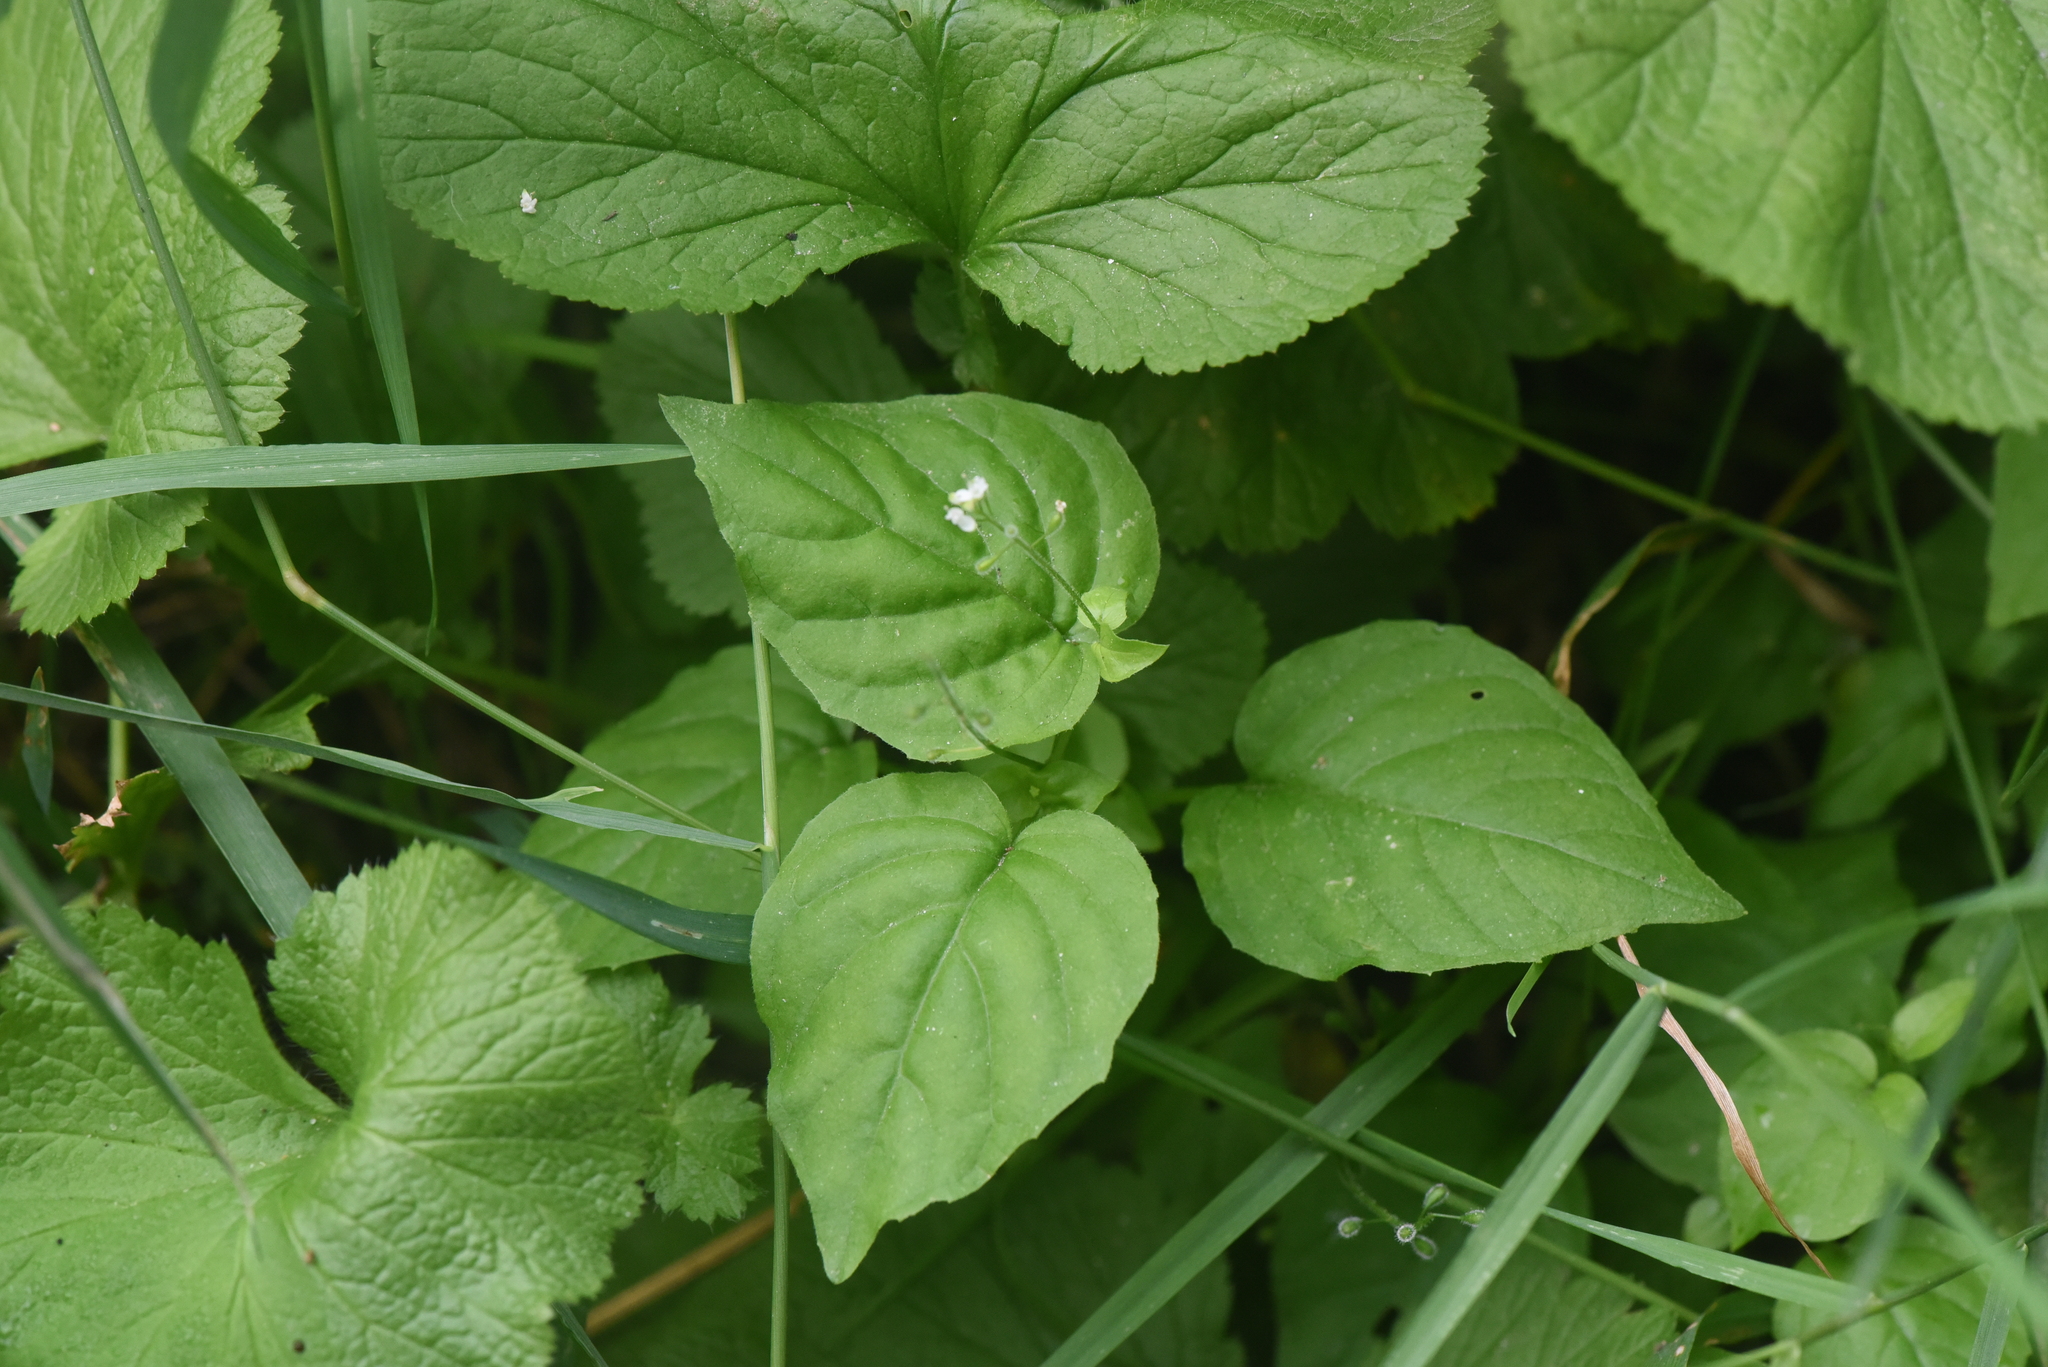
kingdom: Plantae
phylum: Tracheophyta
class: Magnoliopsida
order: Myrtales
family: Onagraceae
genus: Circaea
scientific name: Circaea alpina
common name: Alpine enchanter's-nightshade
